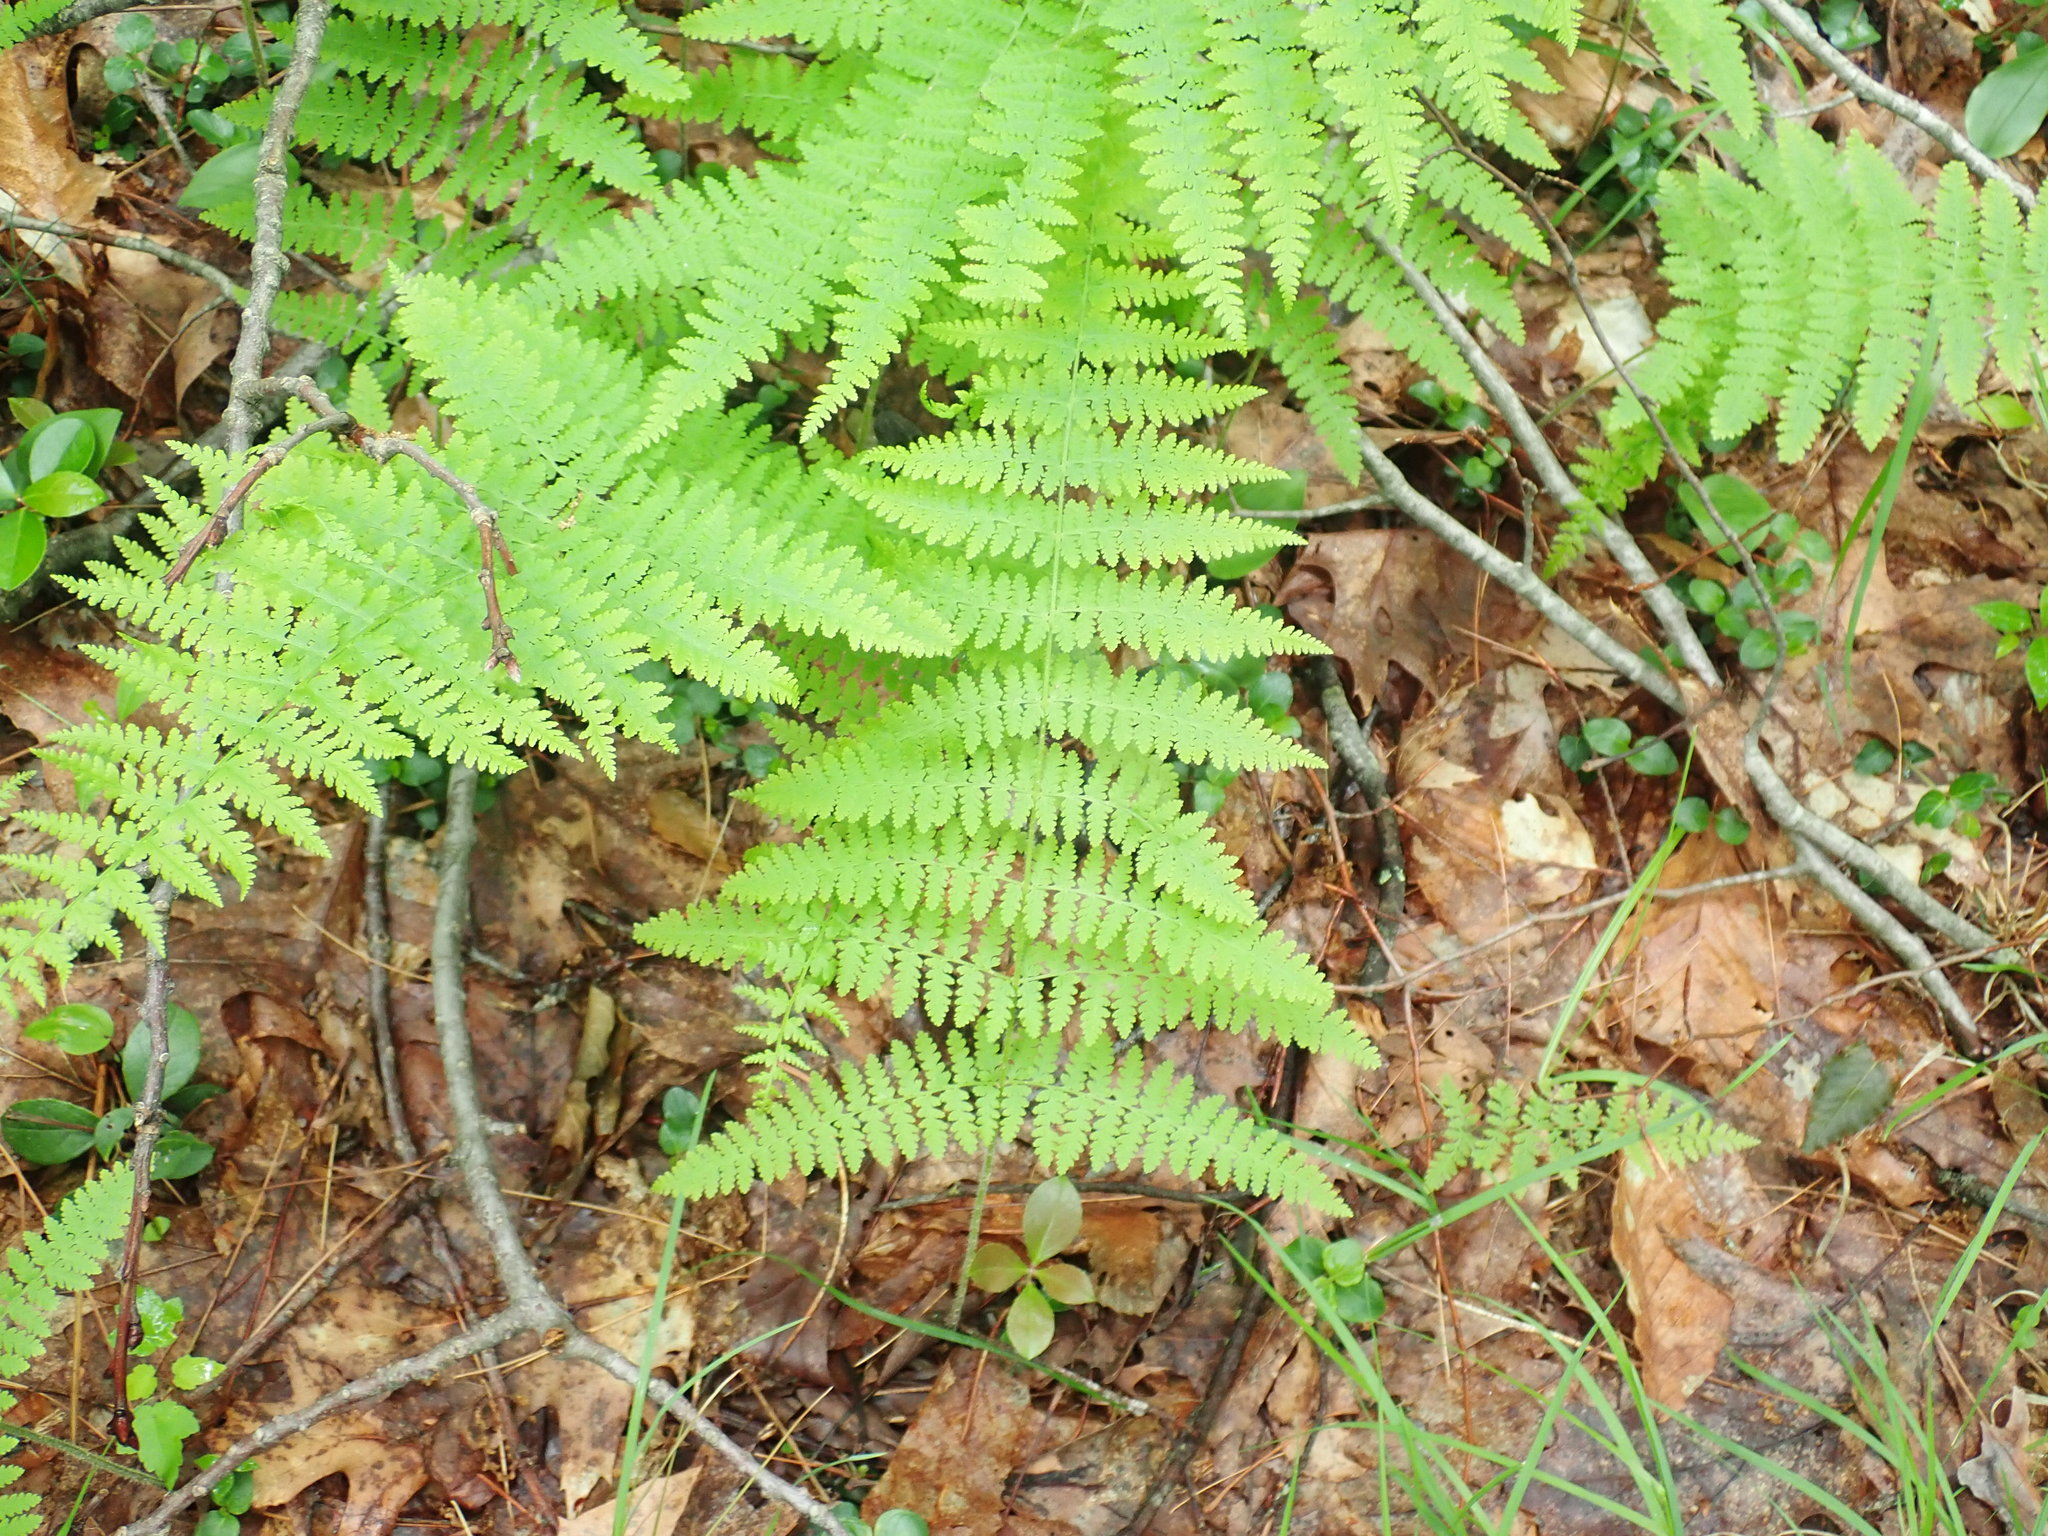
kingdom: Plantae
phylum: Tracheophyta
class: Polypodiopsida
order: Polypodiales
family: Dennstaedtiaceae
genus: Sitobolium
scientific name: Sitobolium punctilobum
